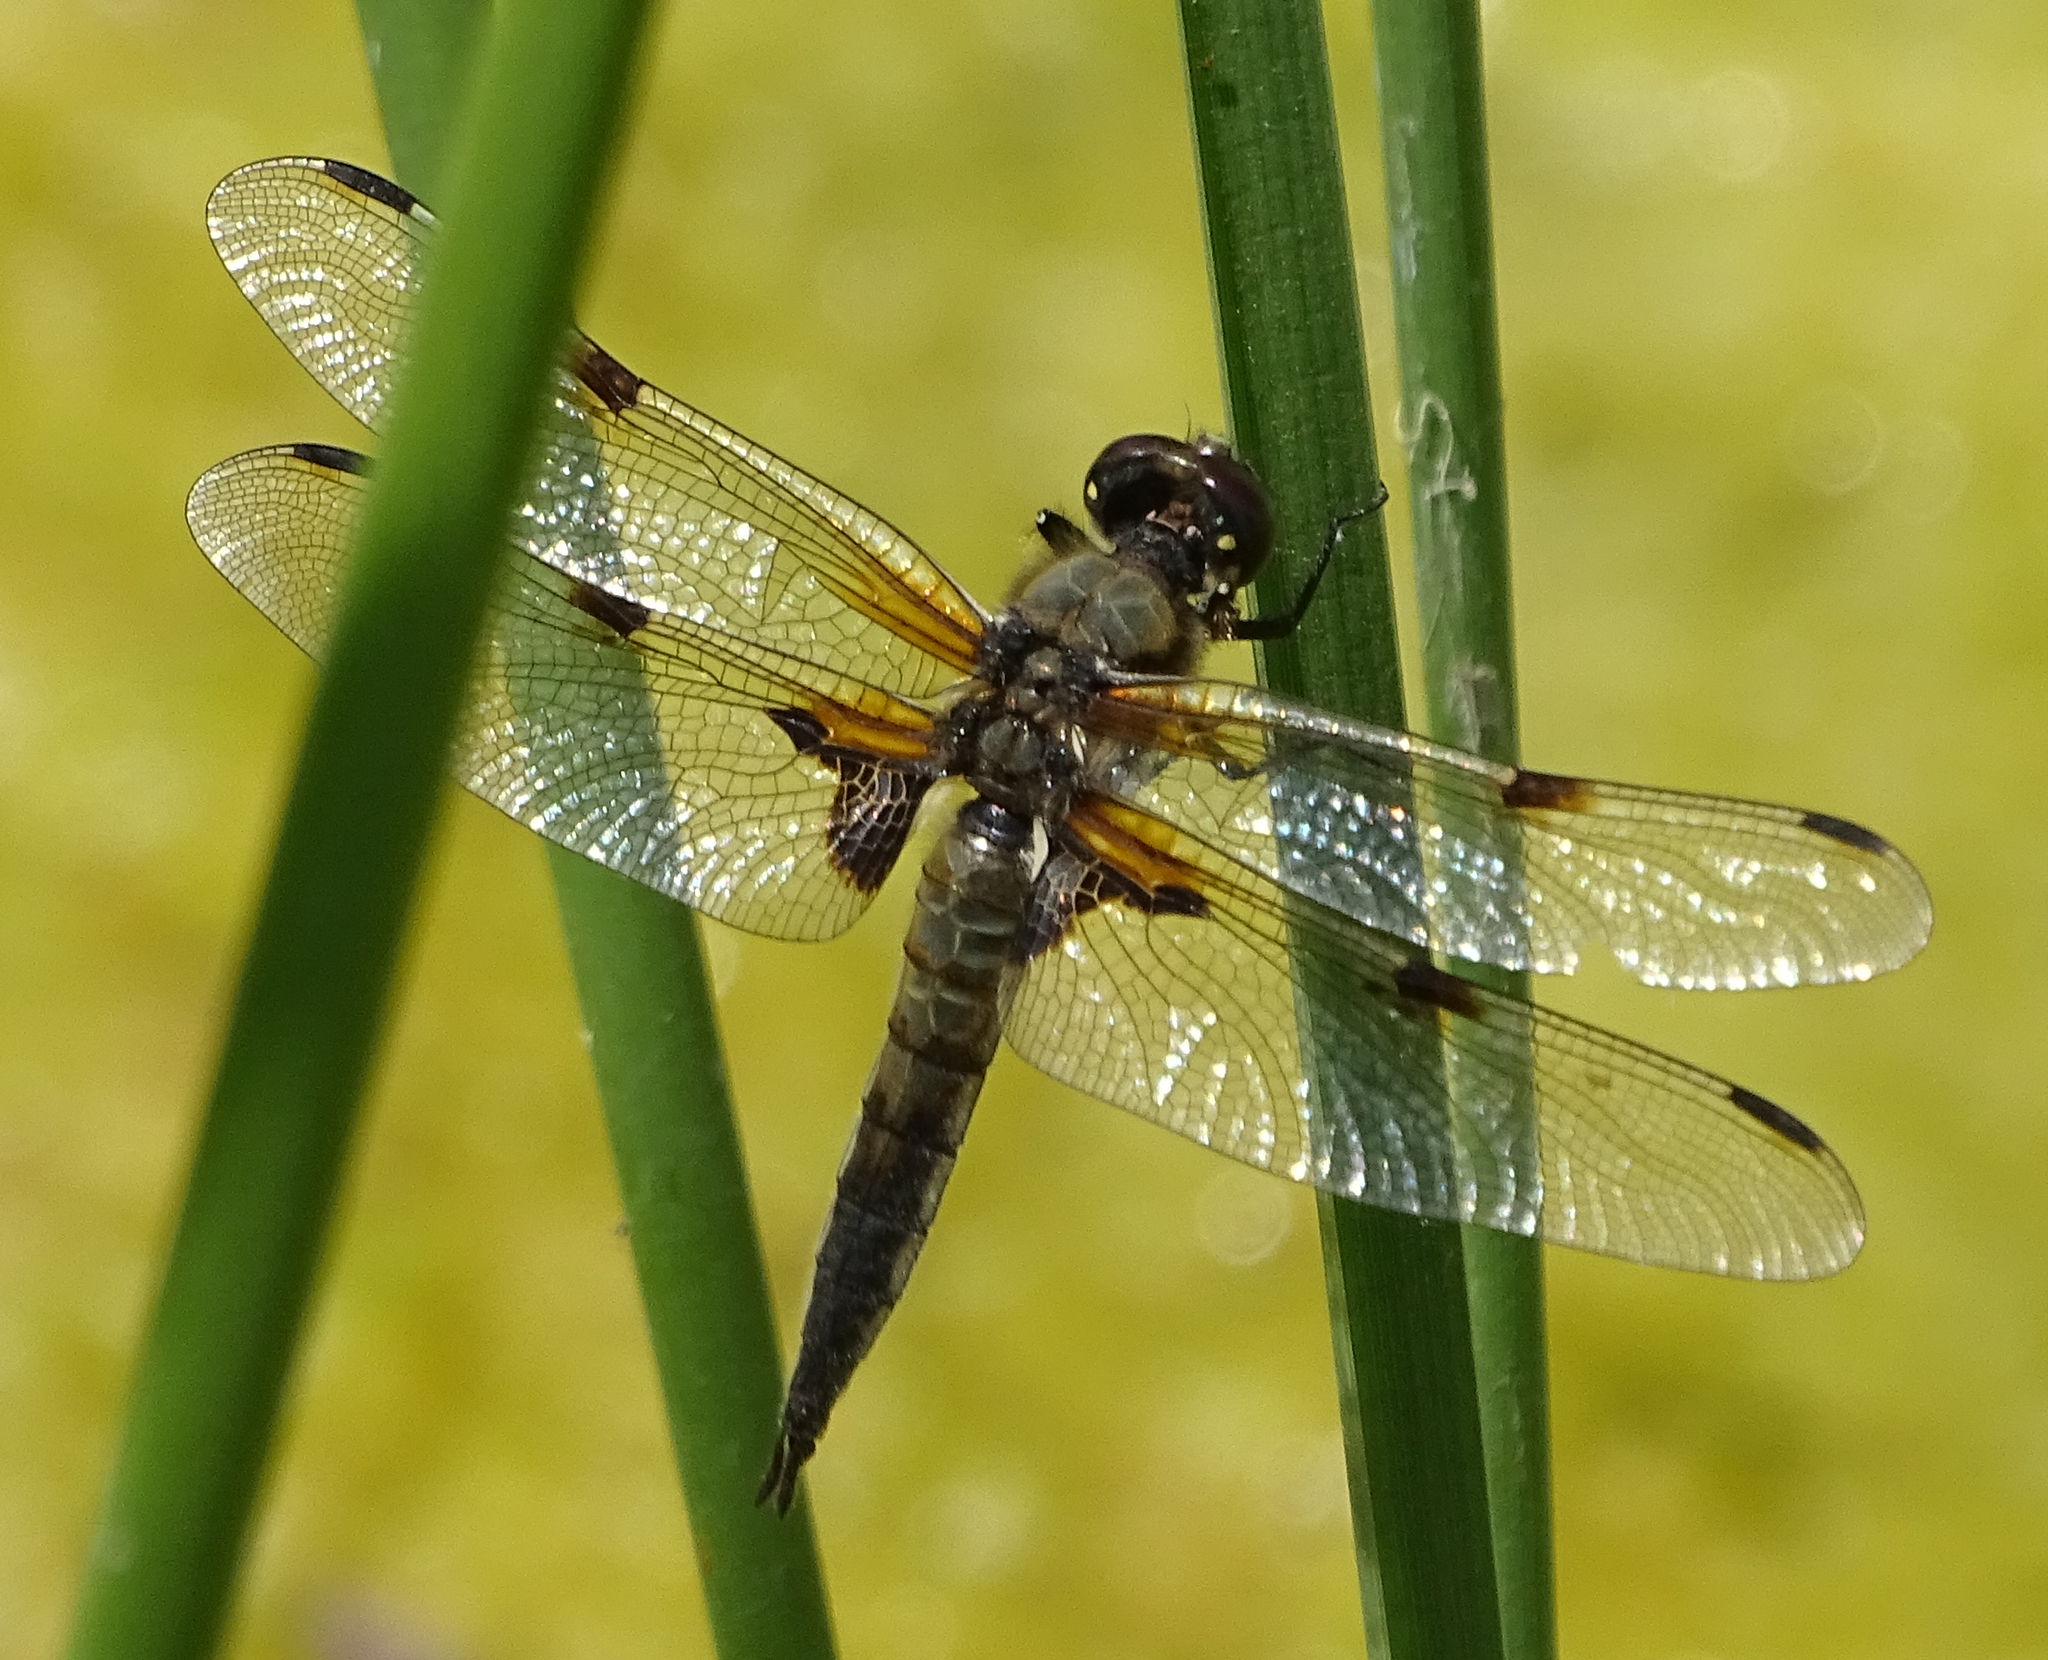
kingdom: Animalia
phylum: Arthropoda
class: Insecta
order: Odonata
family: Libellulidae
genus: Libellula
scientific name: Libellula quadrimaculata
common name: Four-spotted chaser
